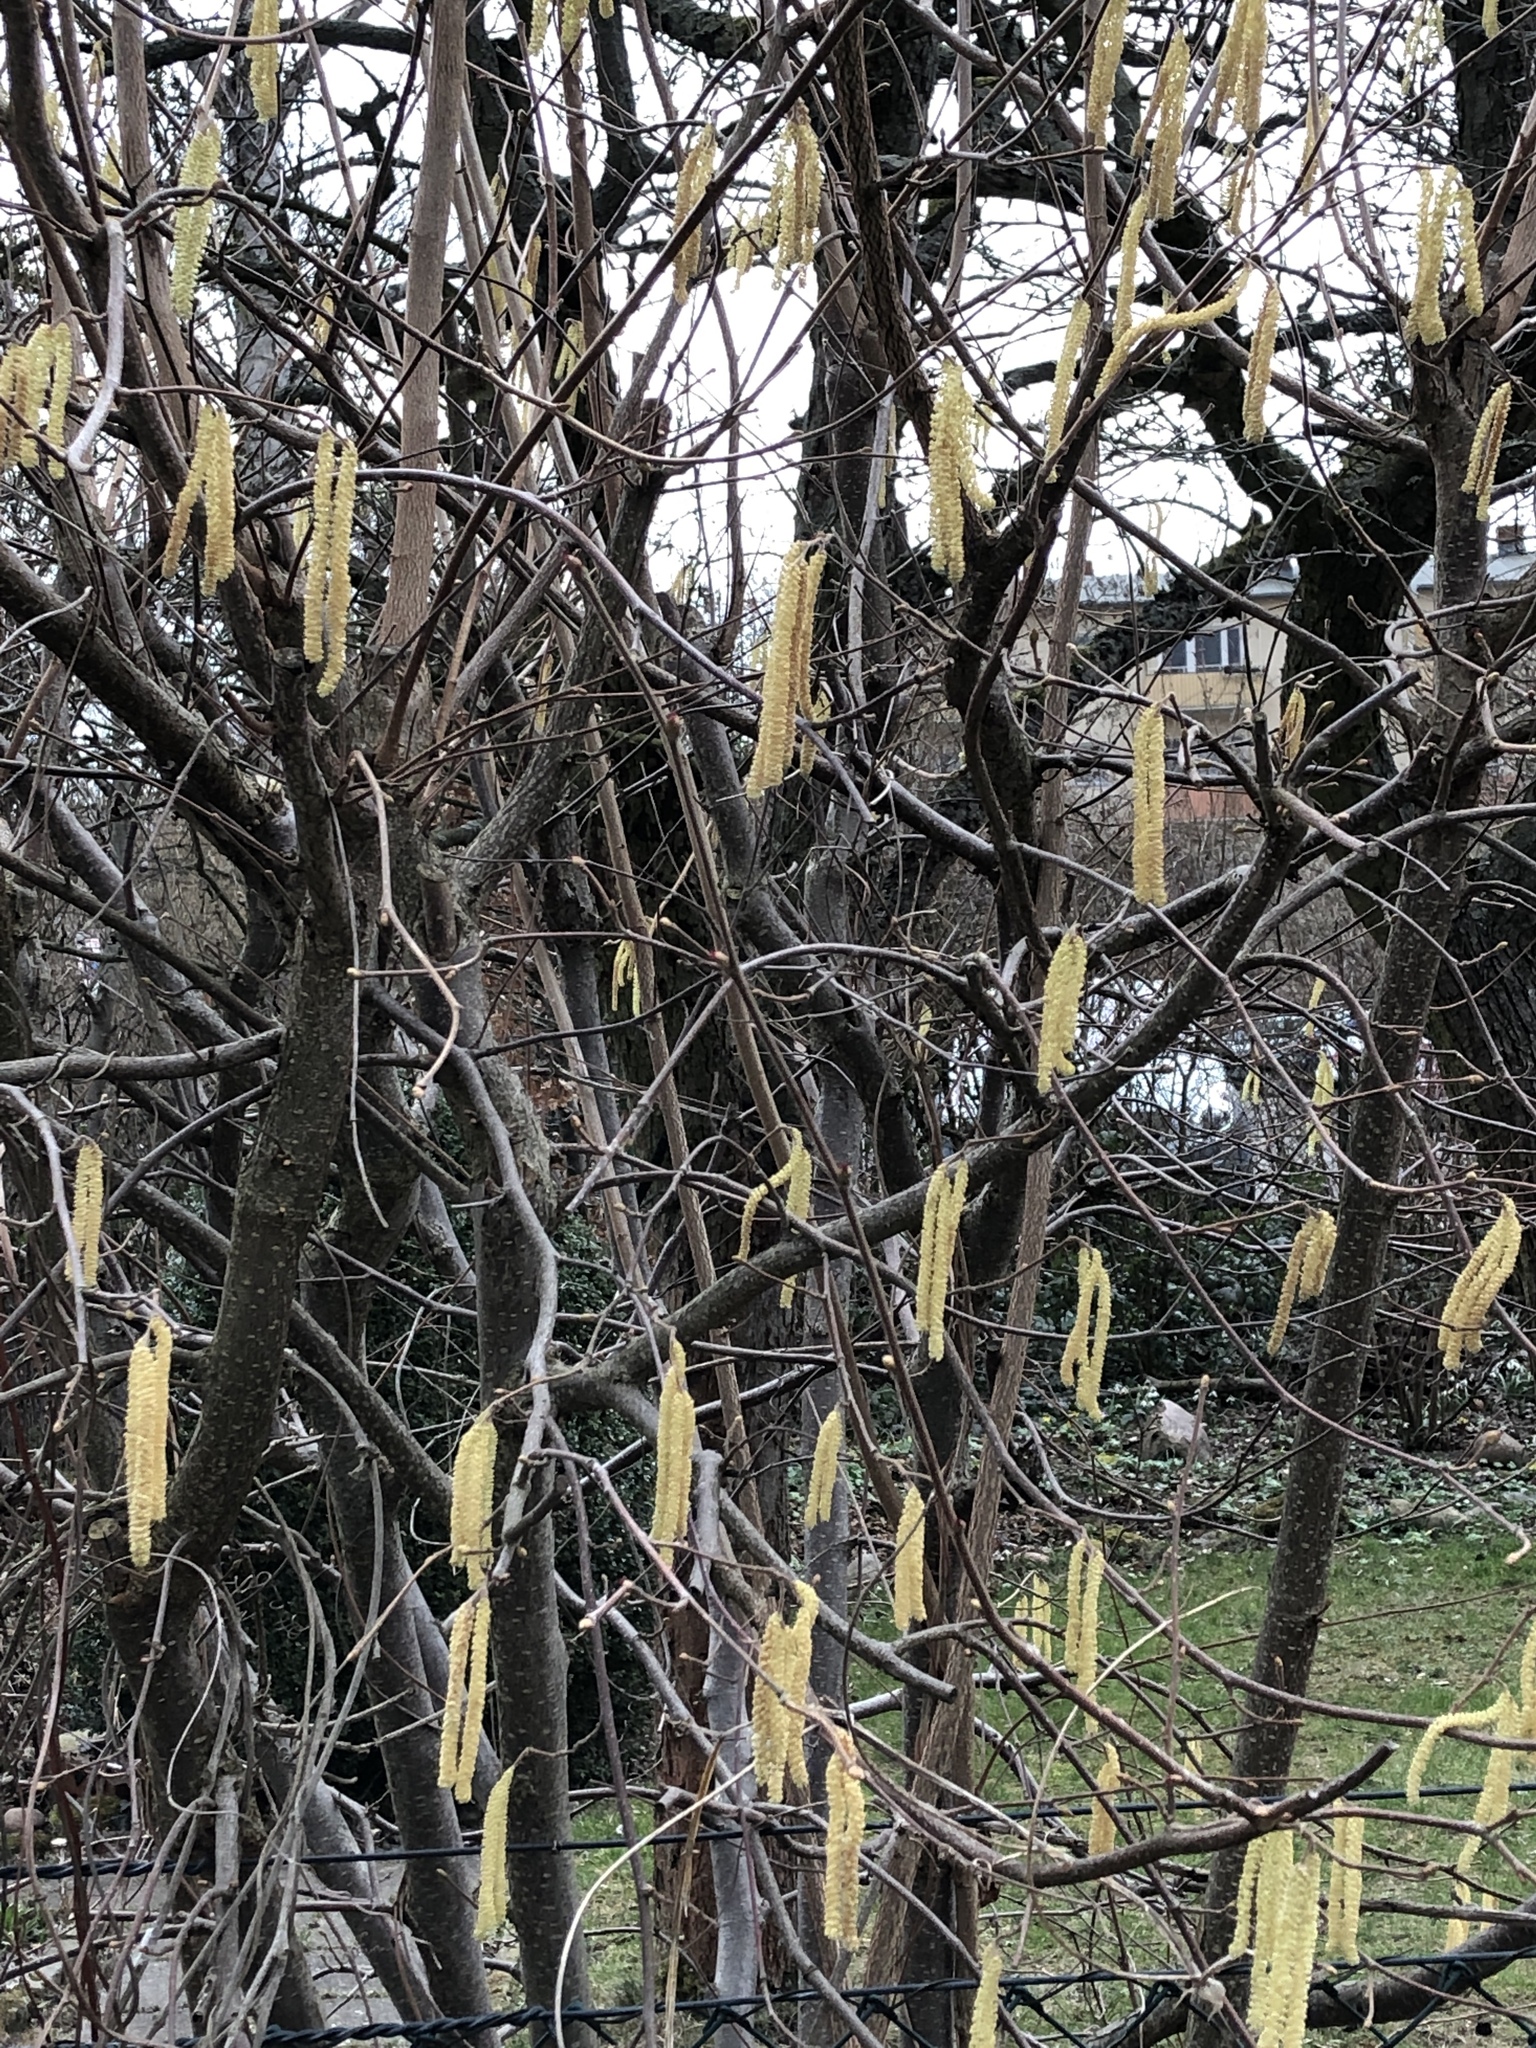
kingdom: Plantae
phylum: Tracheophyta
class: Magnoliopsida
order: Fagales
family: Betulaceae
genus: Corylus
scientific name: Corylus avellana
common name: European hazel
